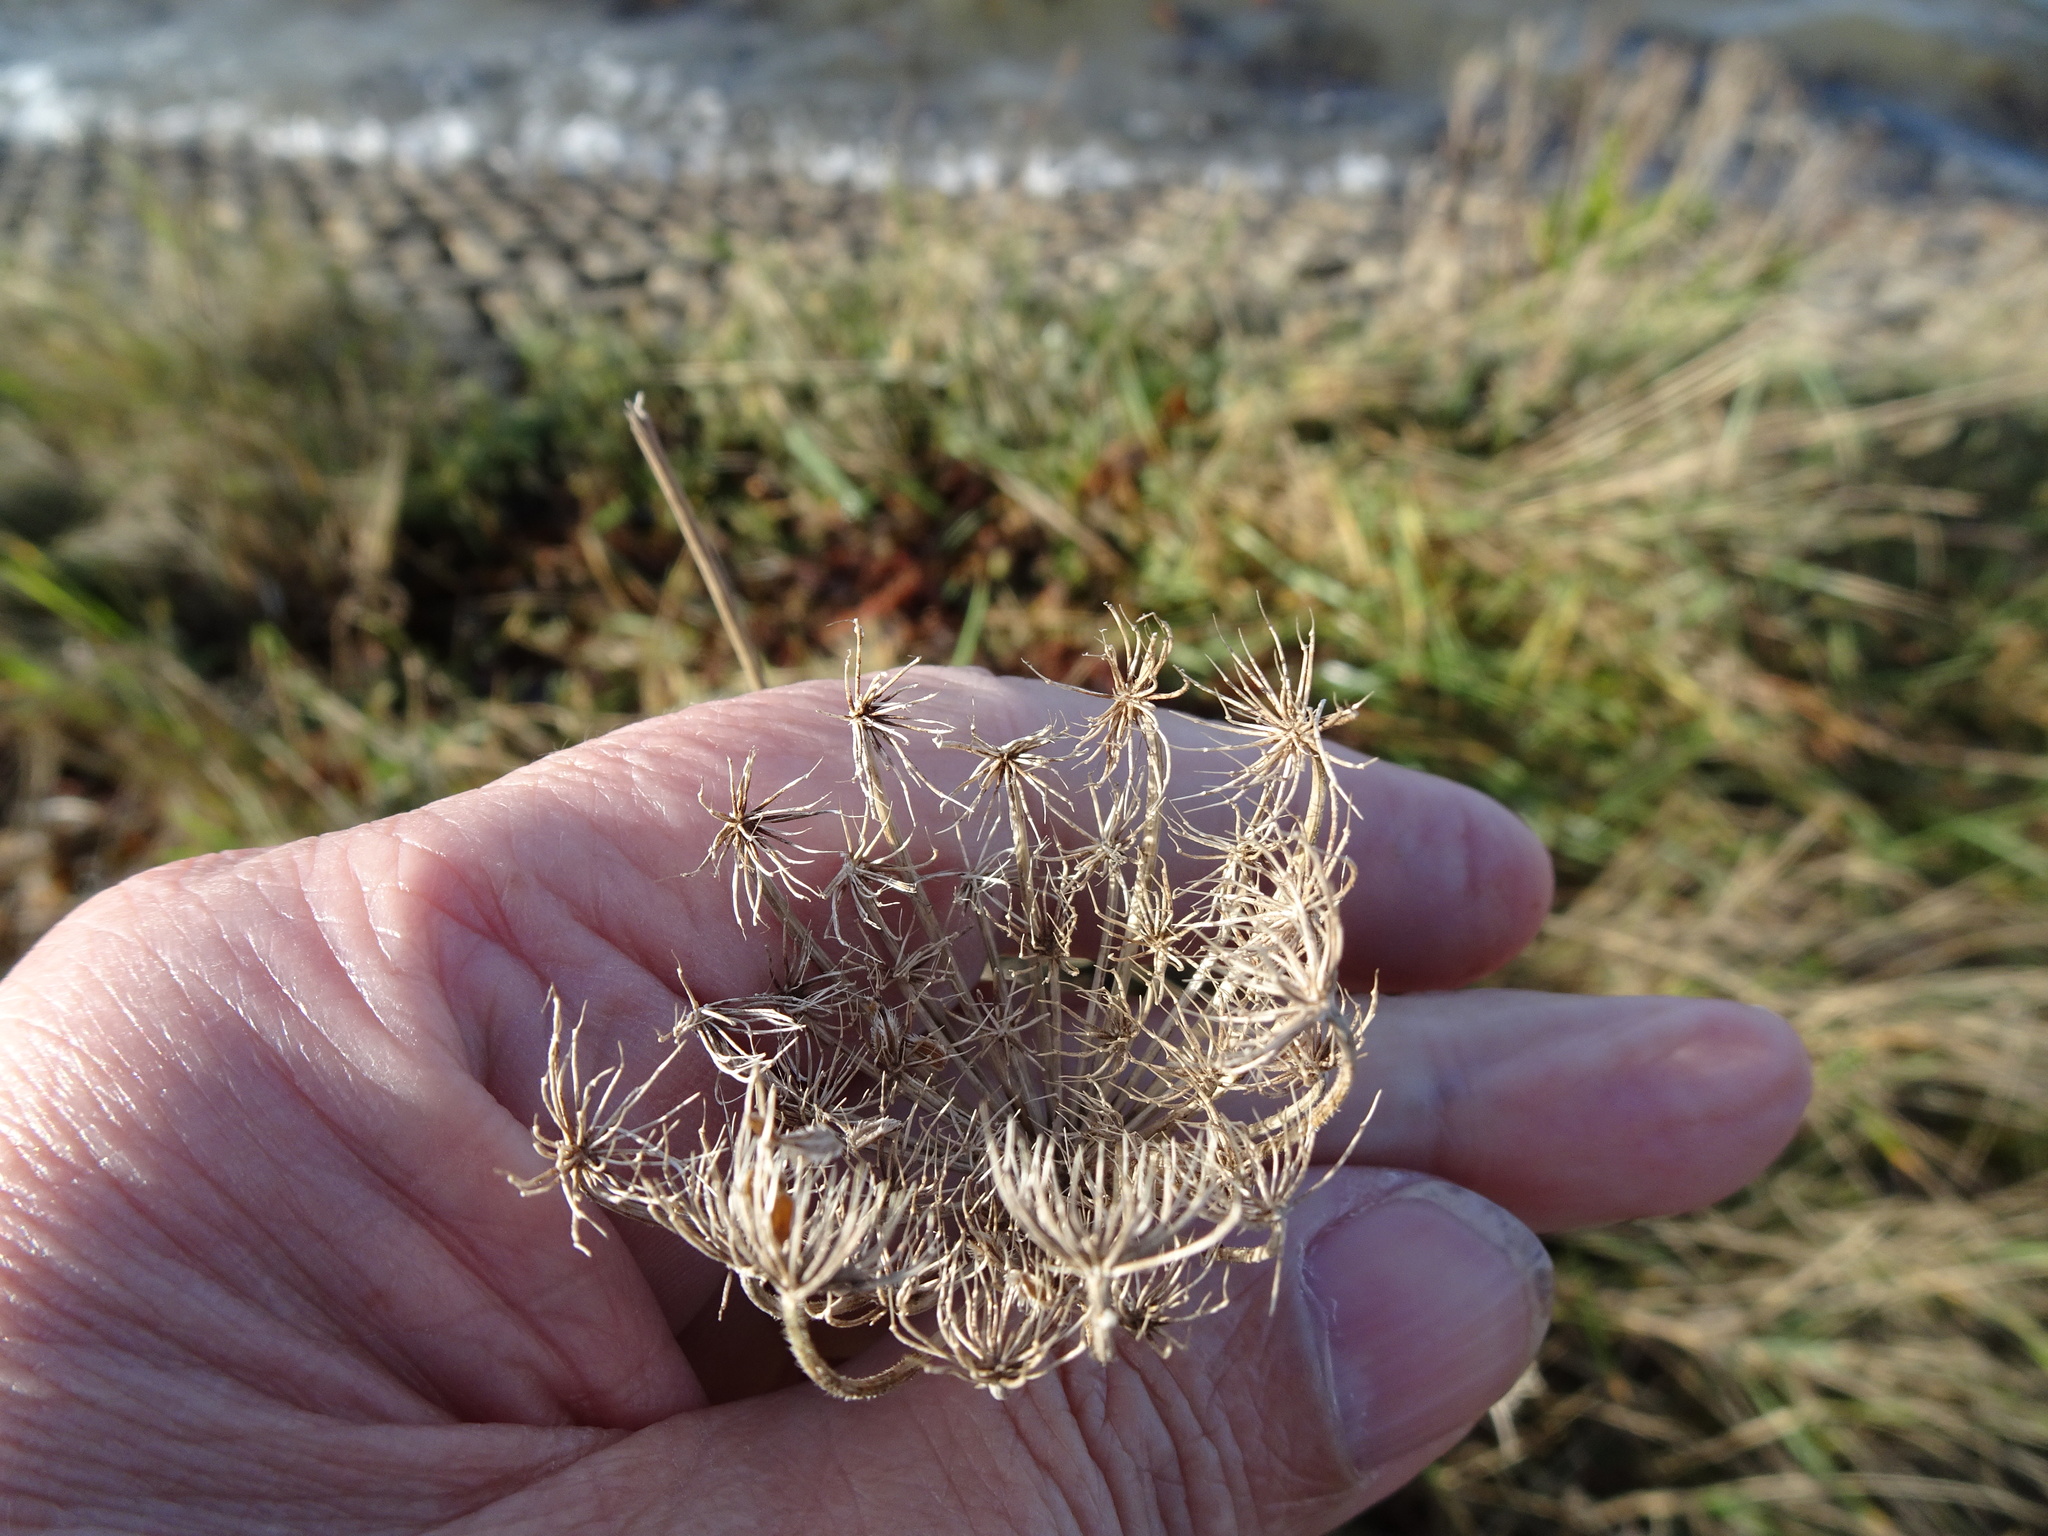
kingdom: Plantae
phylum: Tracheophyta
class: Magnoliopsida
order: Apiales
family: Apiaceae
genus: Daucus
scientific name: Daucus carota
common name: Wild carrot
